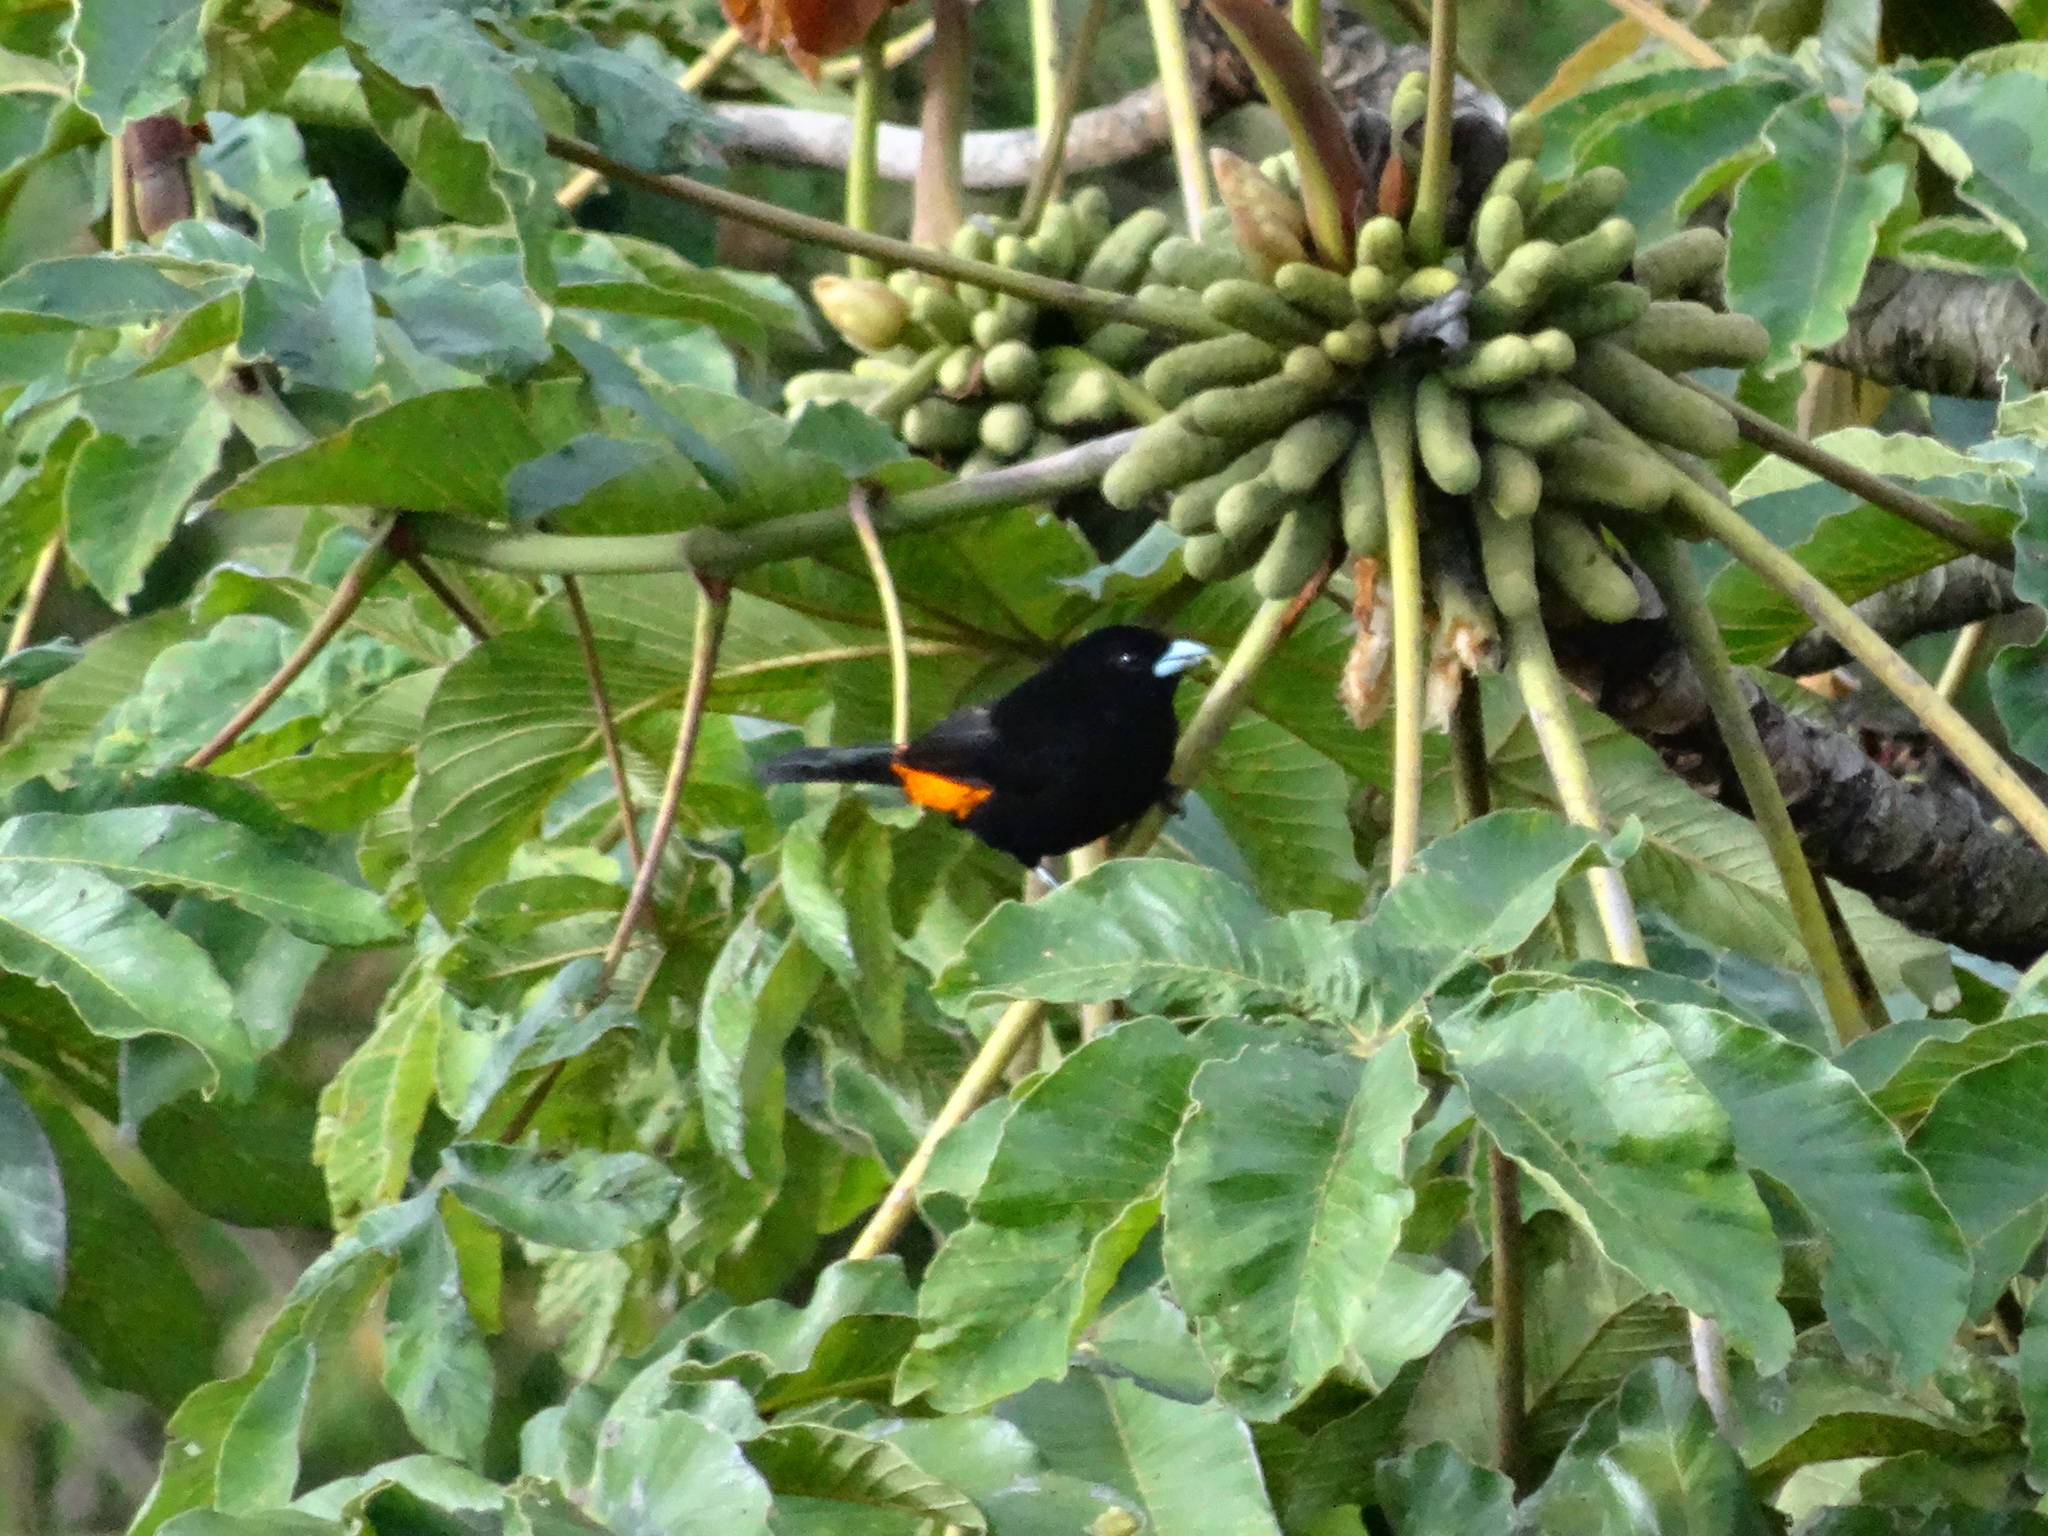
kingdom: Animalia
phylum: Chordata
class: Aves
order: Passeriformes
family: Thraupidae
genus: Ramphocelus
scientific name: Ramphocelus flammigerus
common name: Flame-rumped tanager
